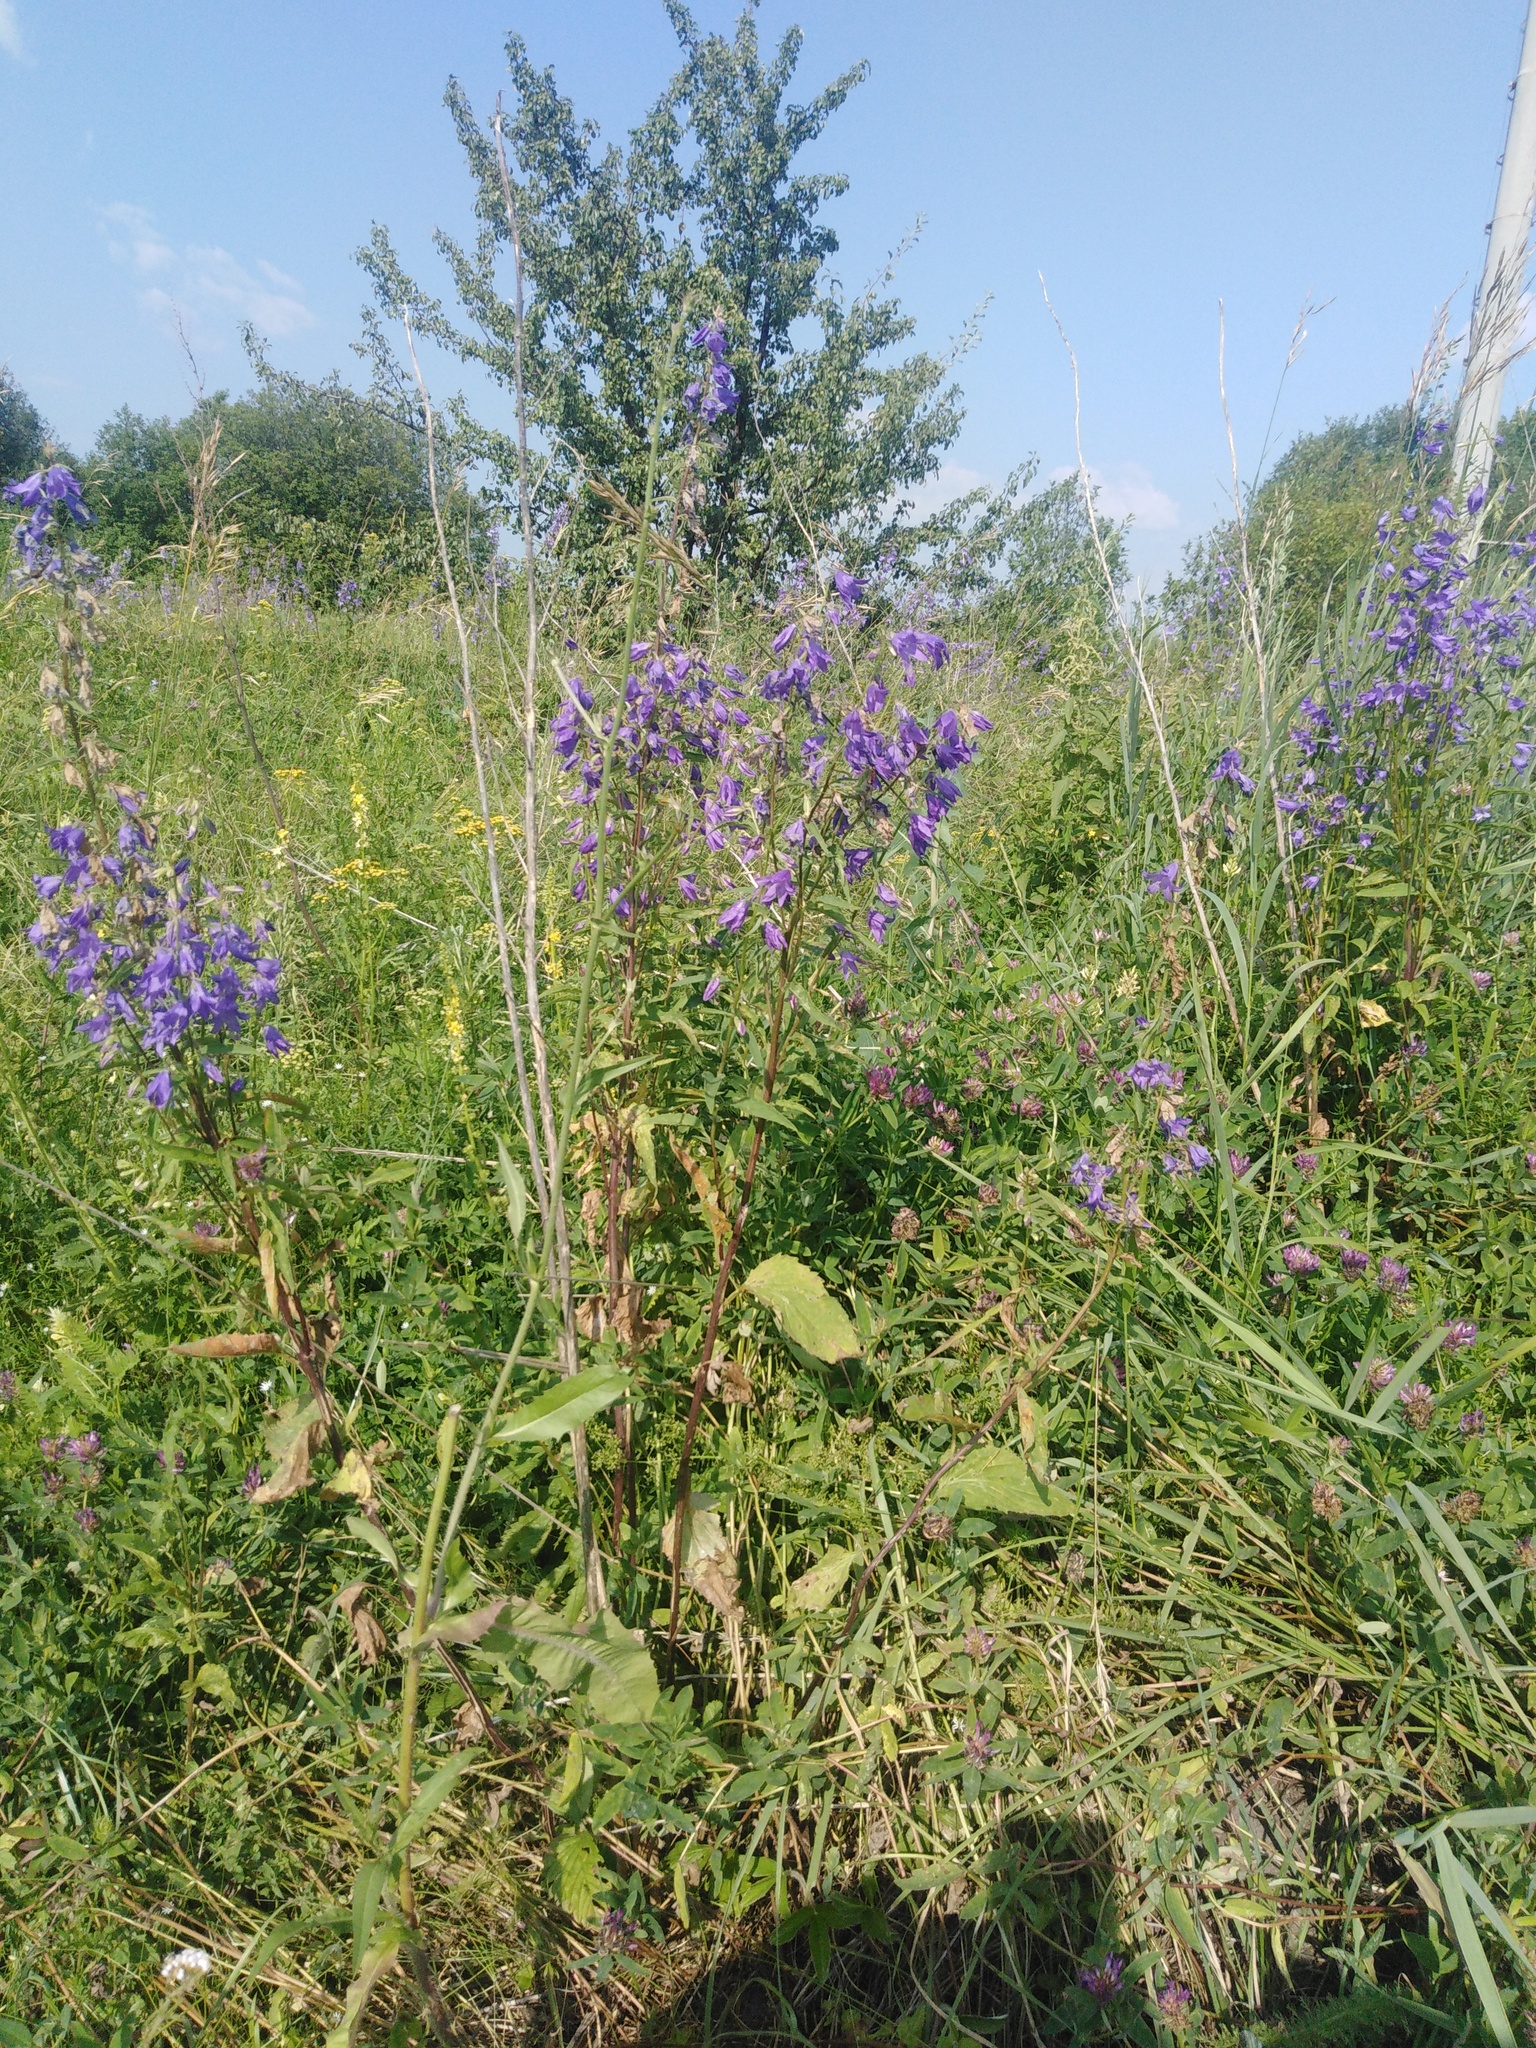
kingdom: Plantae
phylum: Tracheophyta
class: Magnoliopsida
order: Asterales
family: Campanulaceae
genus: Campanula
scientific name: Campanula rapunculoides
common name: Creeping bellflower
